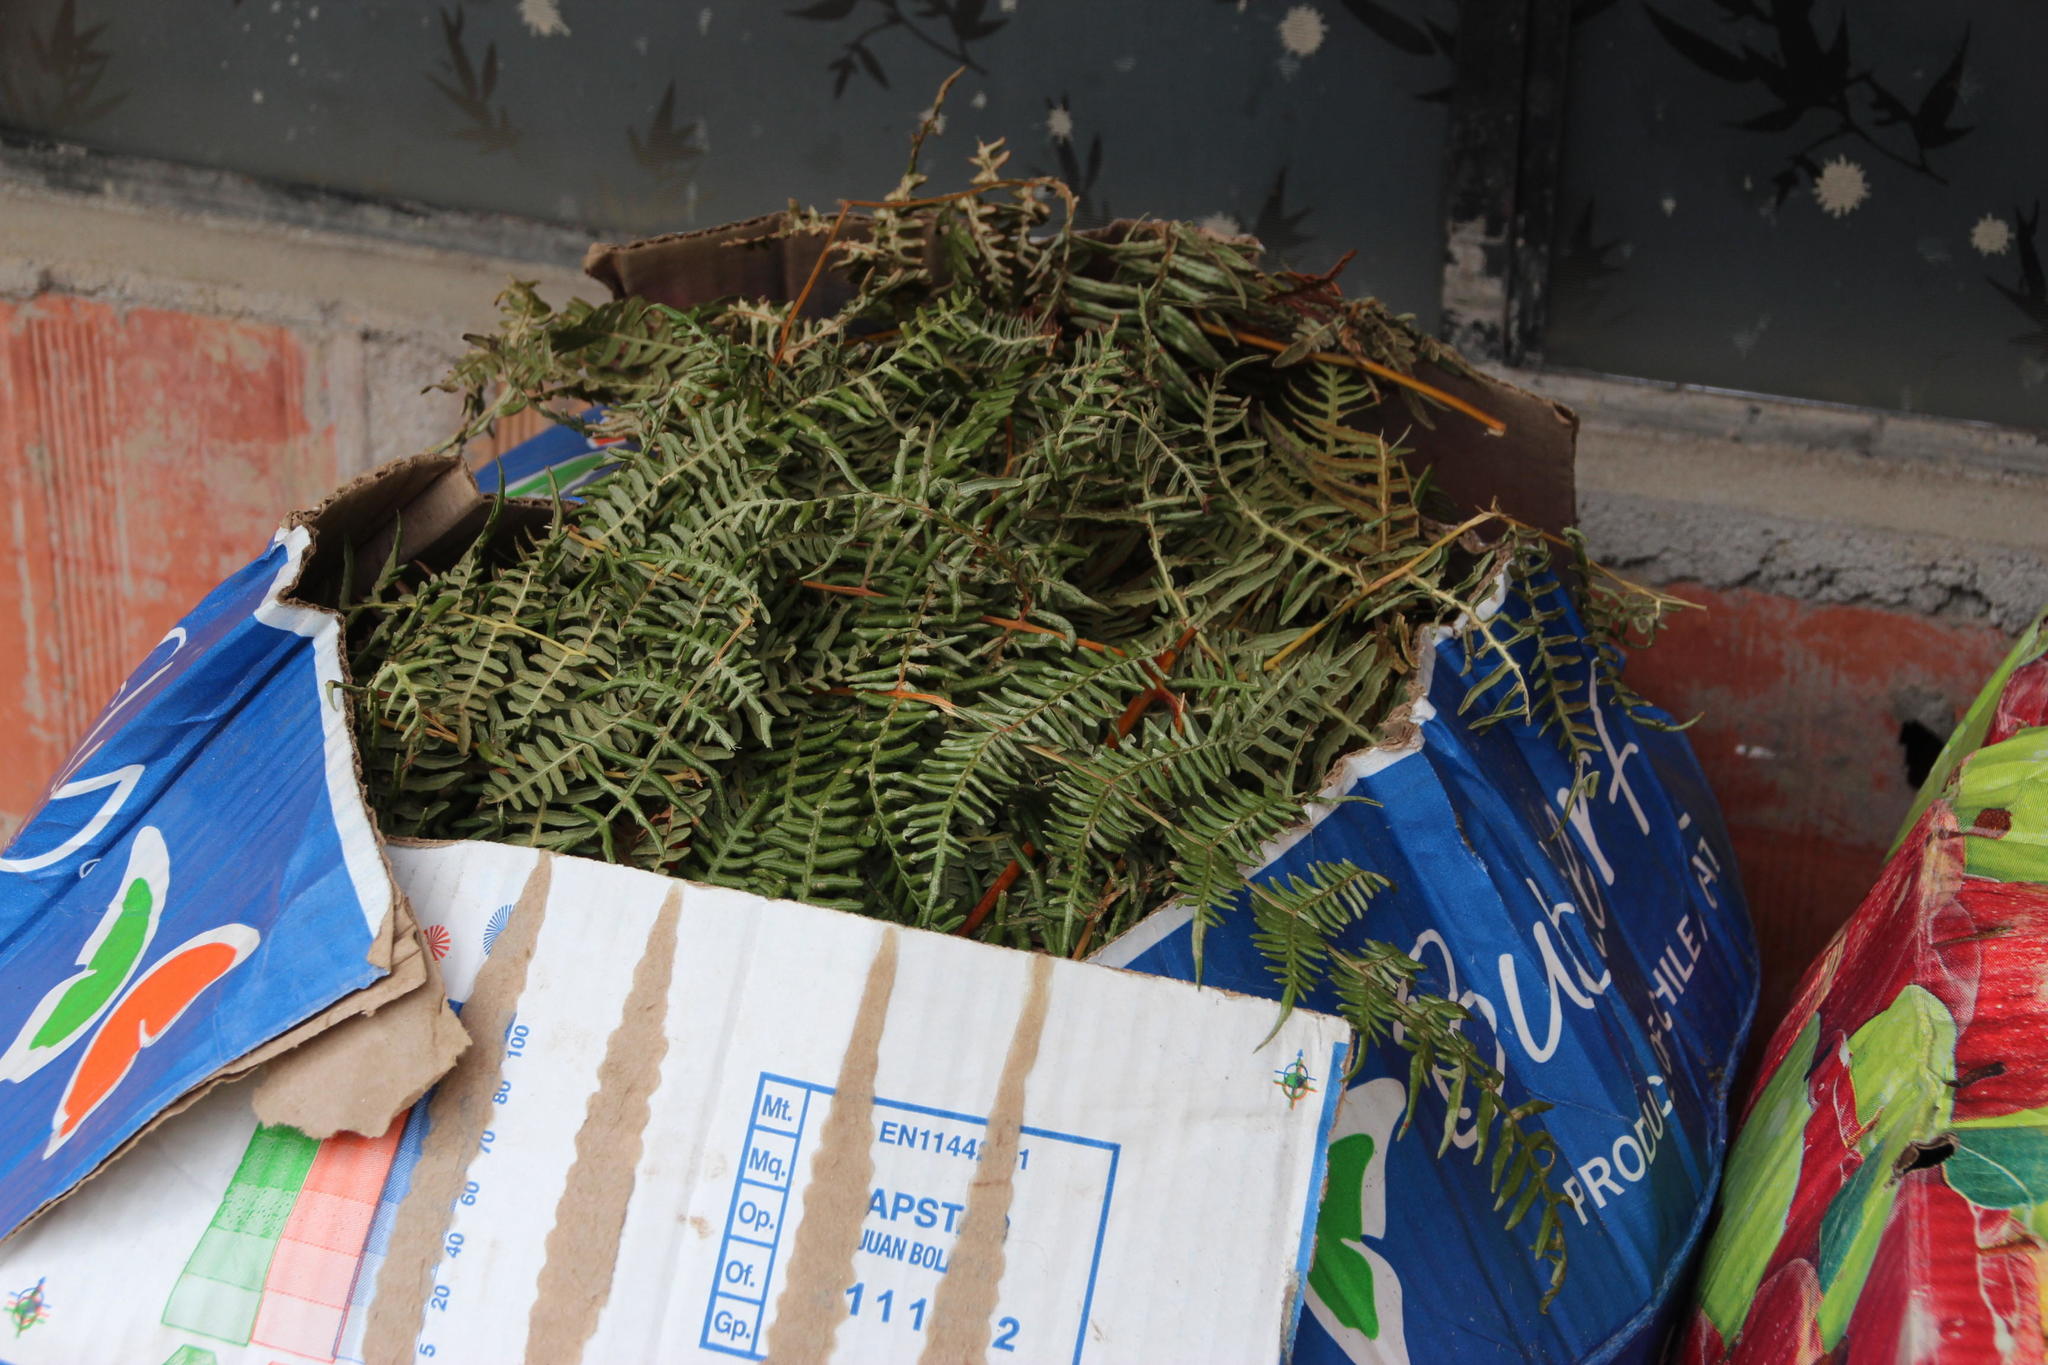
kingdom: Plantae
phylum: Tracheophyta
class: Polypodiopsida
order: Polypodiales
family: Dennstaedtiaceae
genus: Pteridium
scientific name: Pteridium esculentum
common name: Bracken fern
